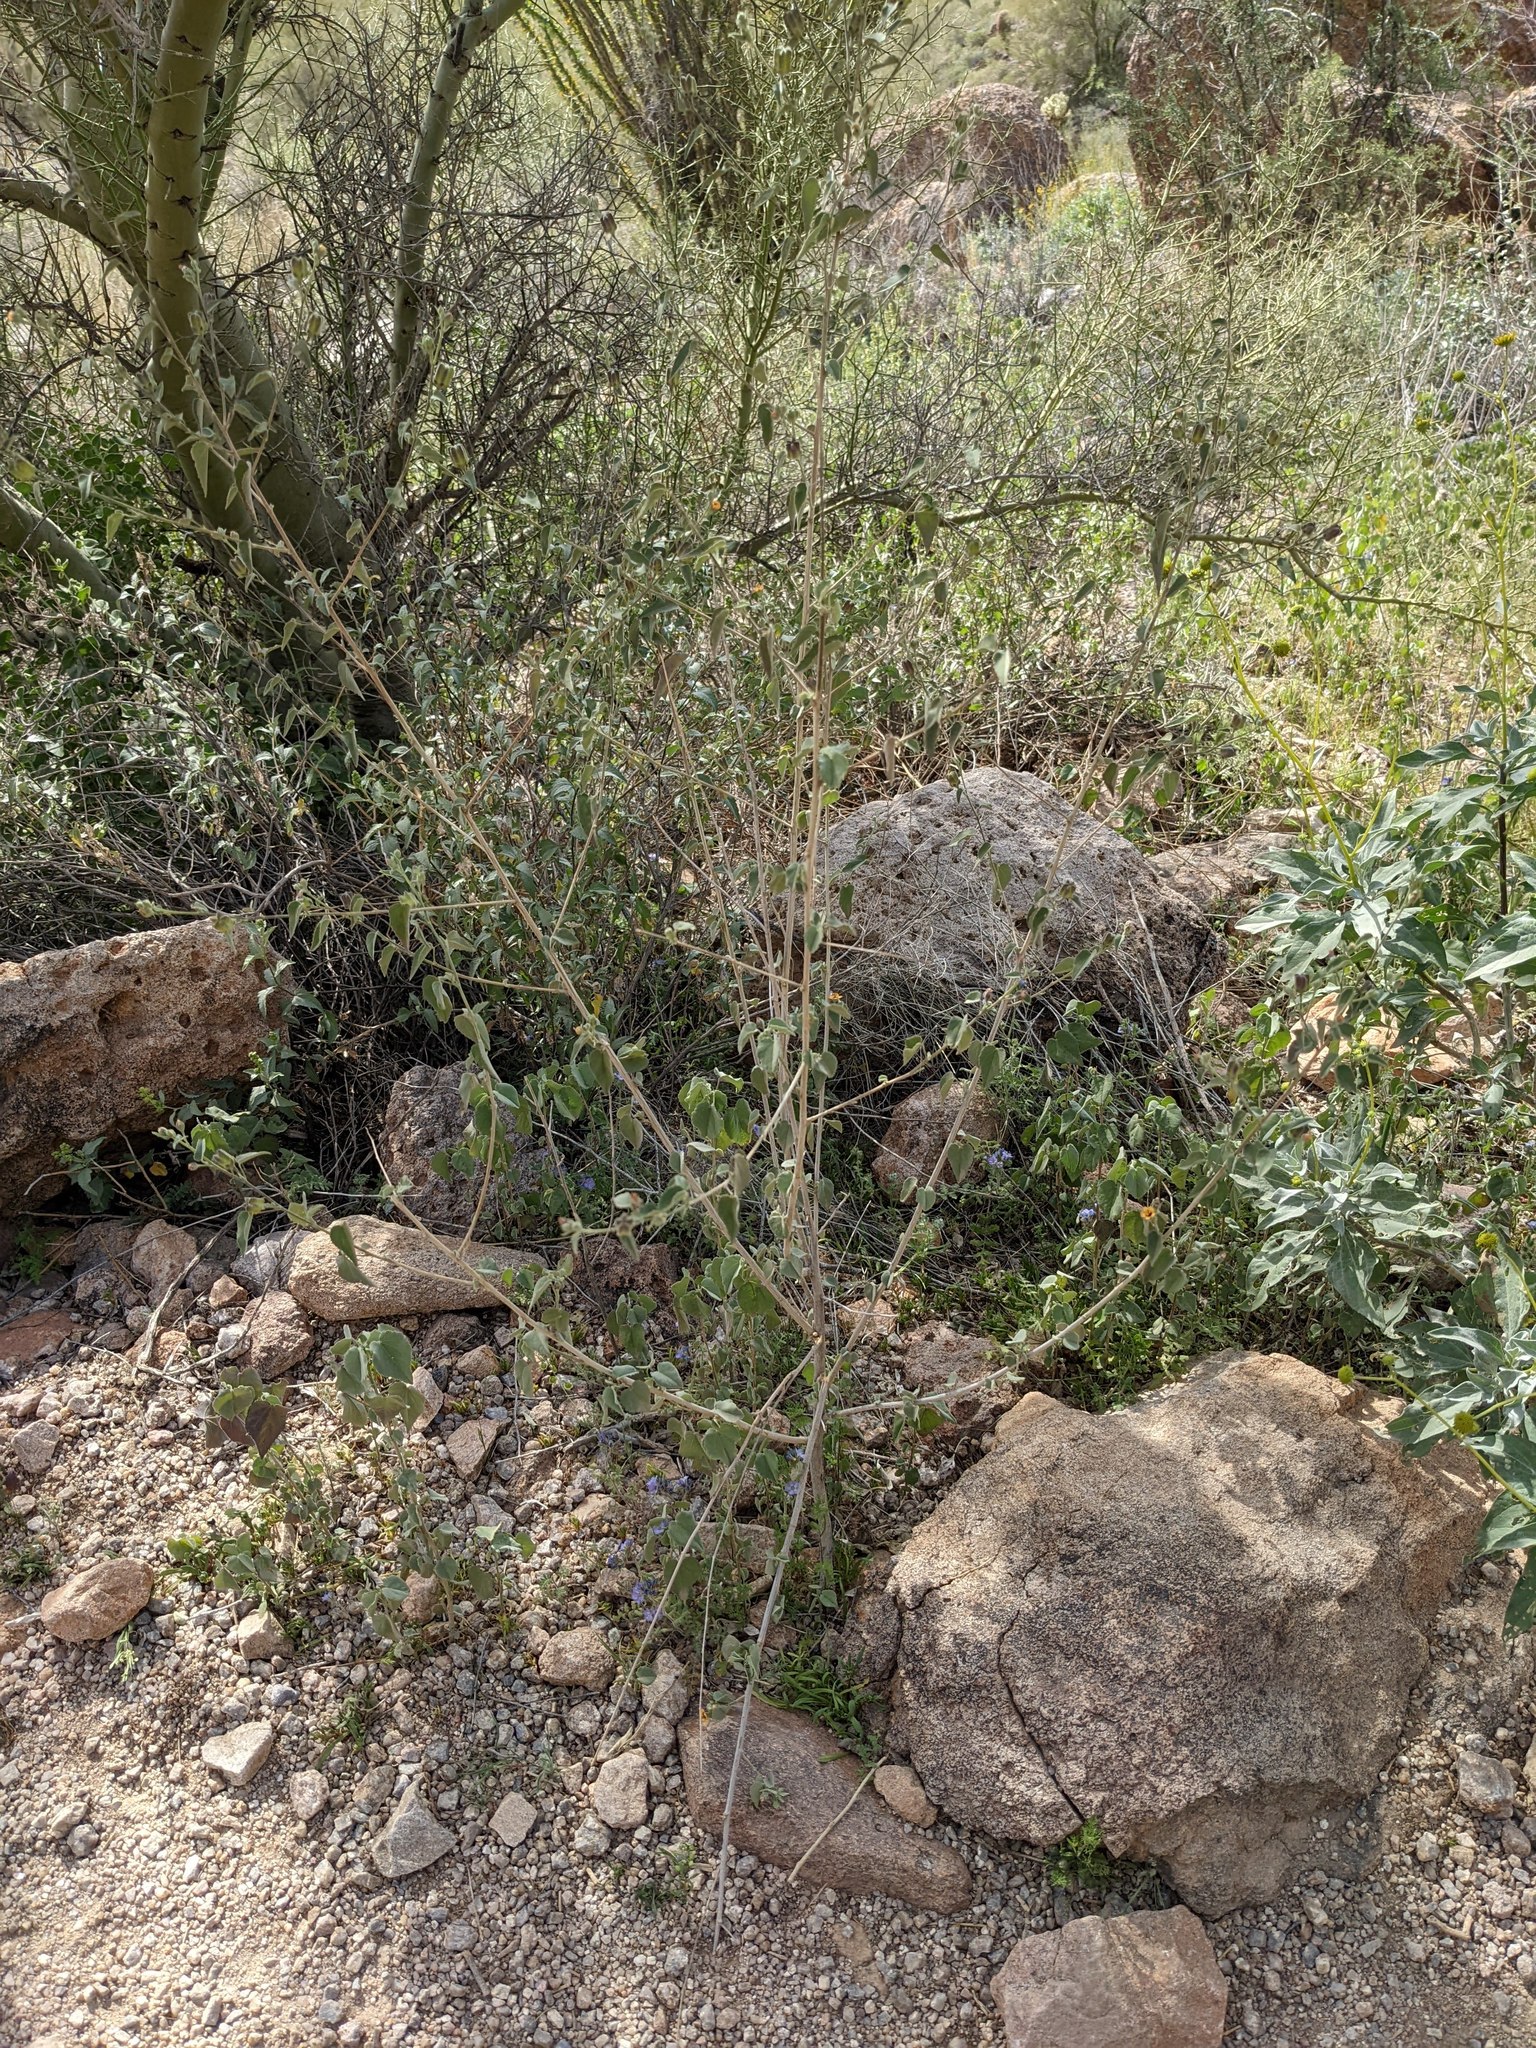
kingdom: Plantae
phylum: Tracheophyta
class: Magnoliopsida
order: Malvales
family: Malvaceae
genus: Abutilon
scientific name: Abutilon incanum
